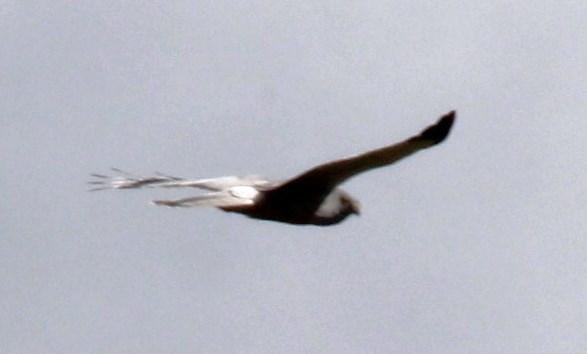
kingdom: Animalia
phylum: Chordata
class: Aves
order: Accipitriformes
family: Accipitridae
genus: Circus
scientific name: Circus cinereus
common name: Cinereous harrier
